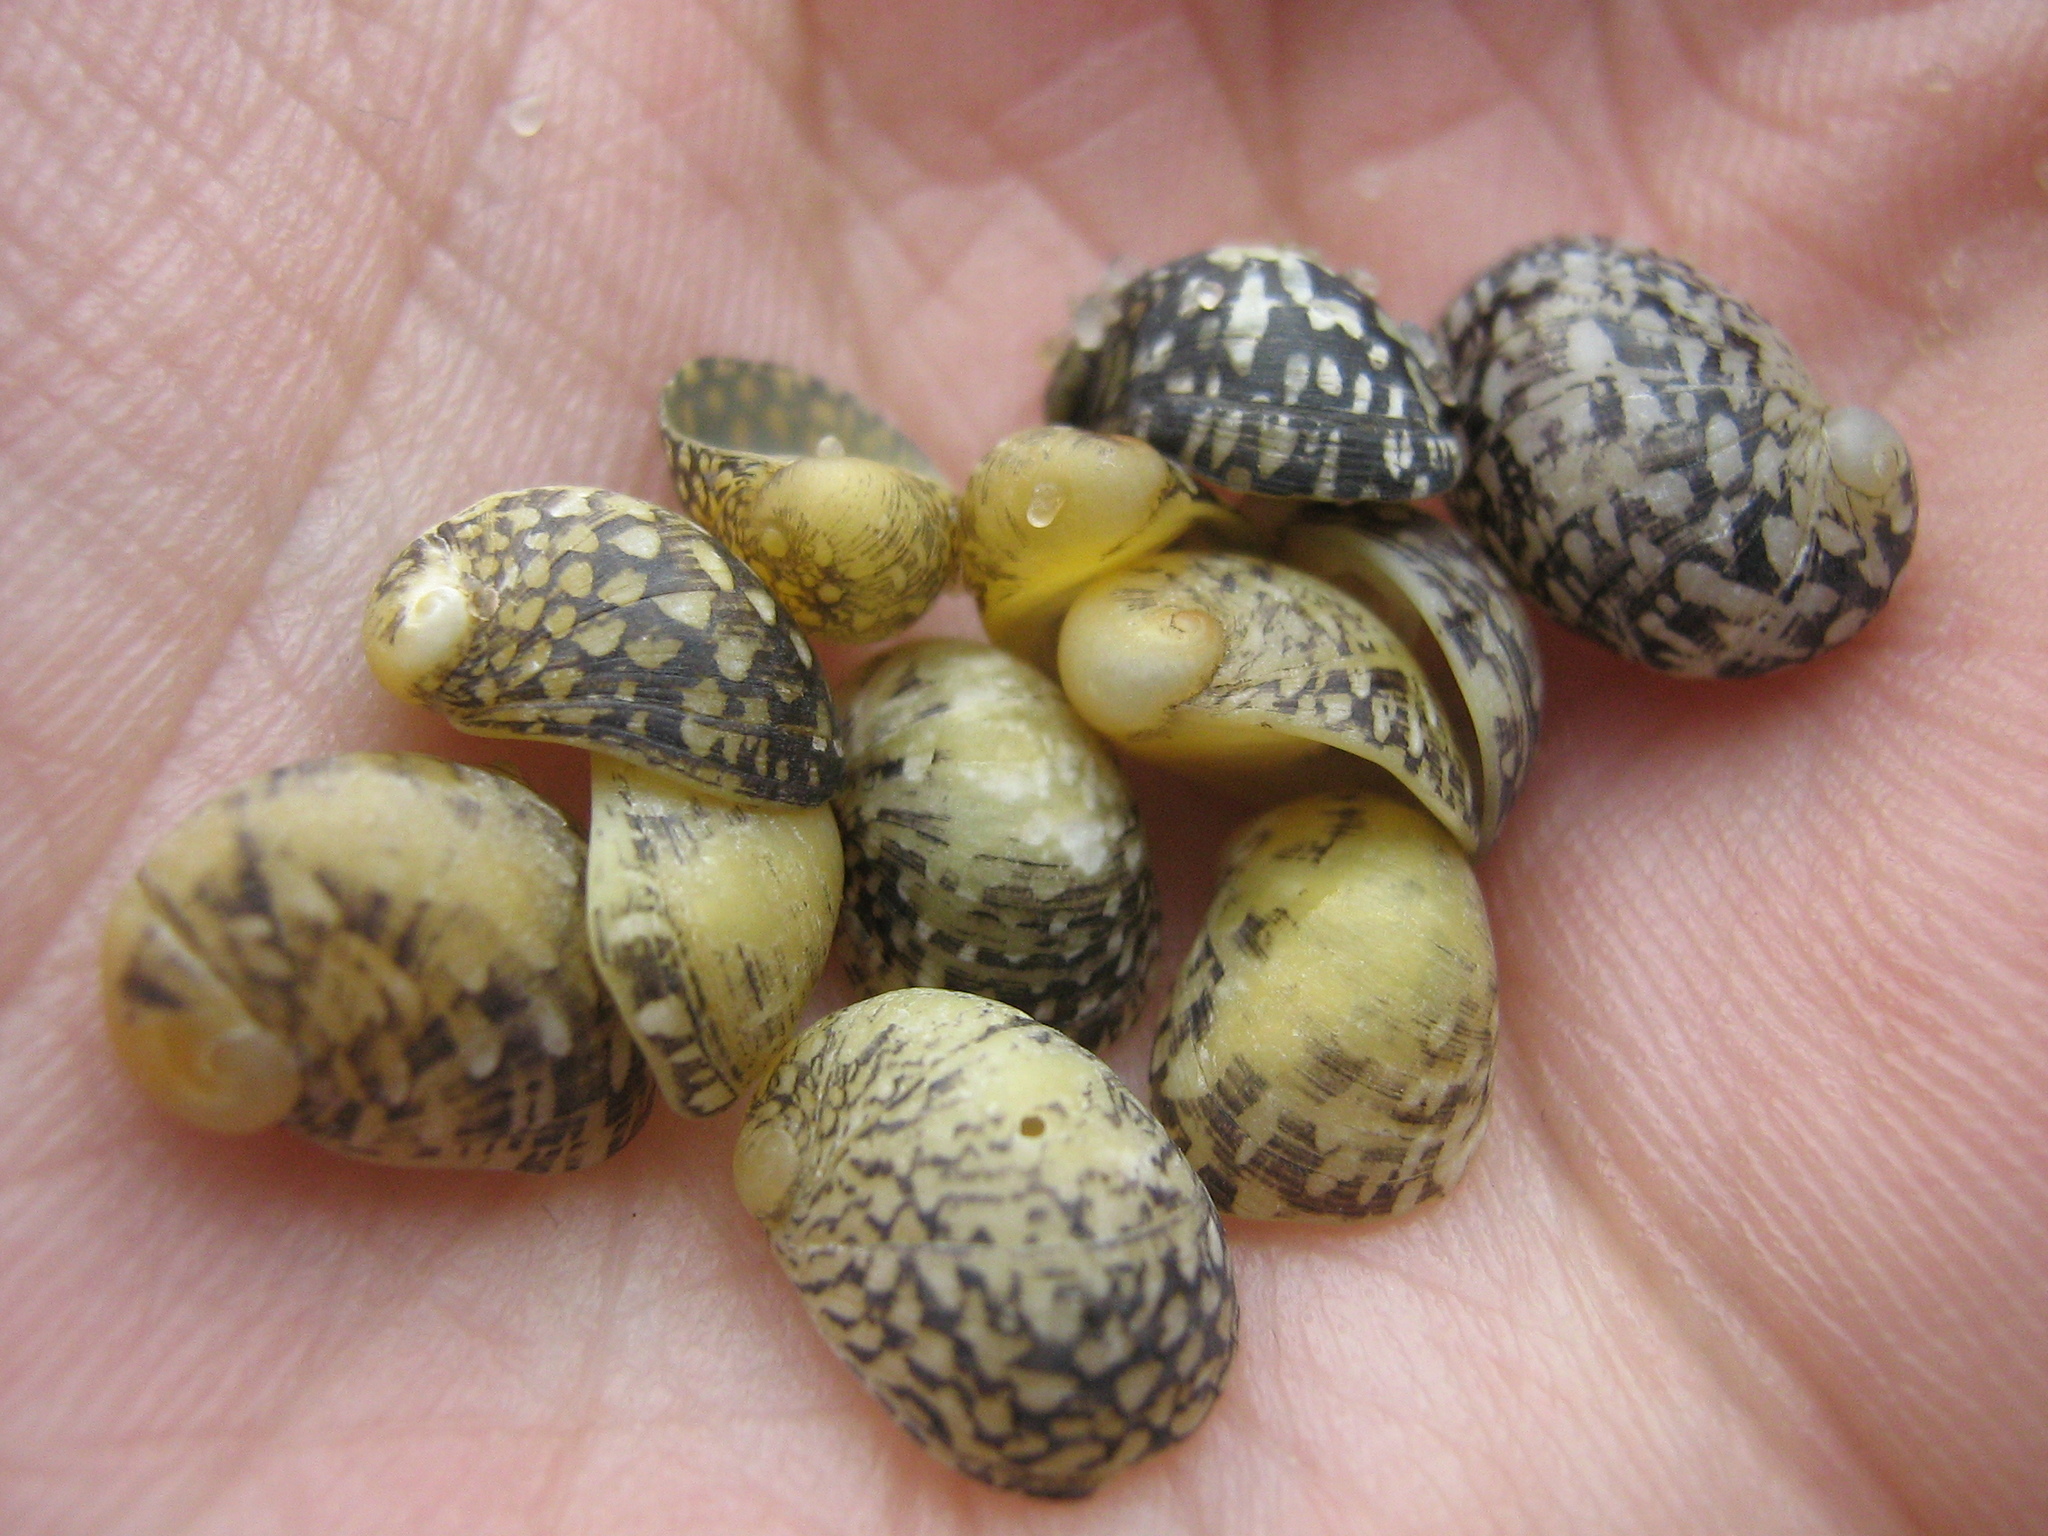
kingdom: Animalia
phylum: Mollusca
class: Gastropoda
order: Cycloneritida
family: Neritidae
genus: Theodoxus
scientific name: Theodoxus fluviatilis
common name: River nerite
